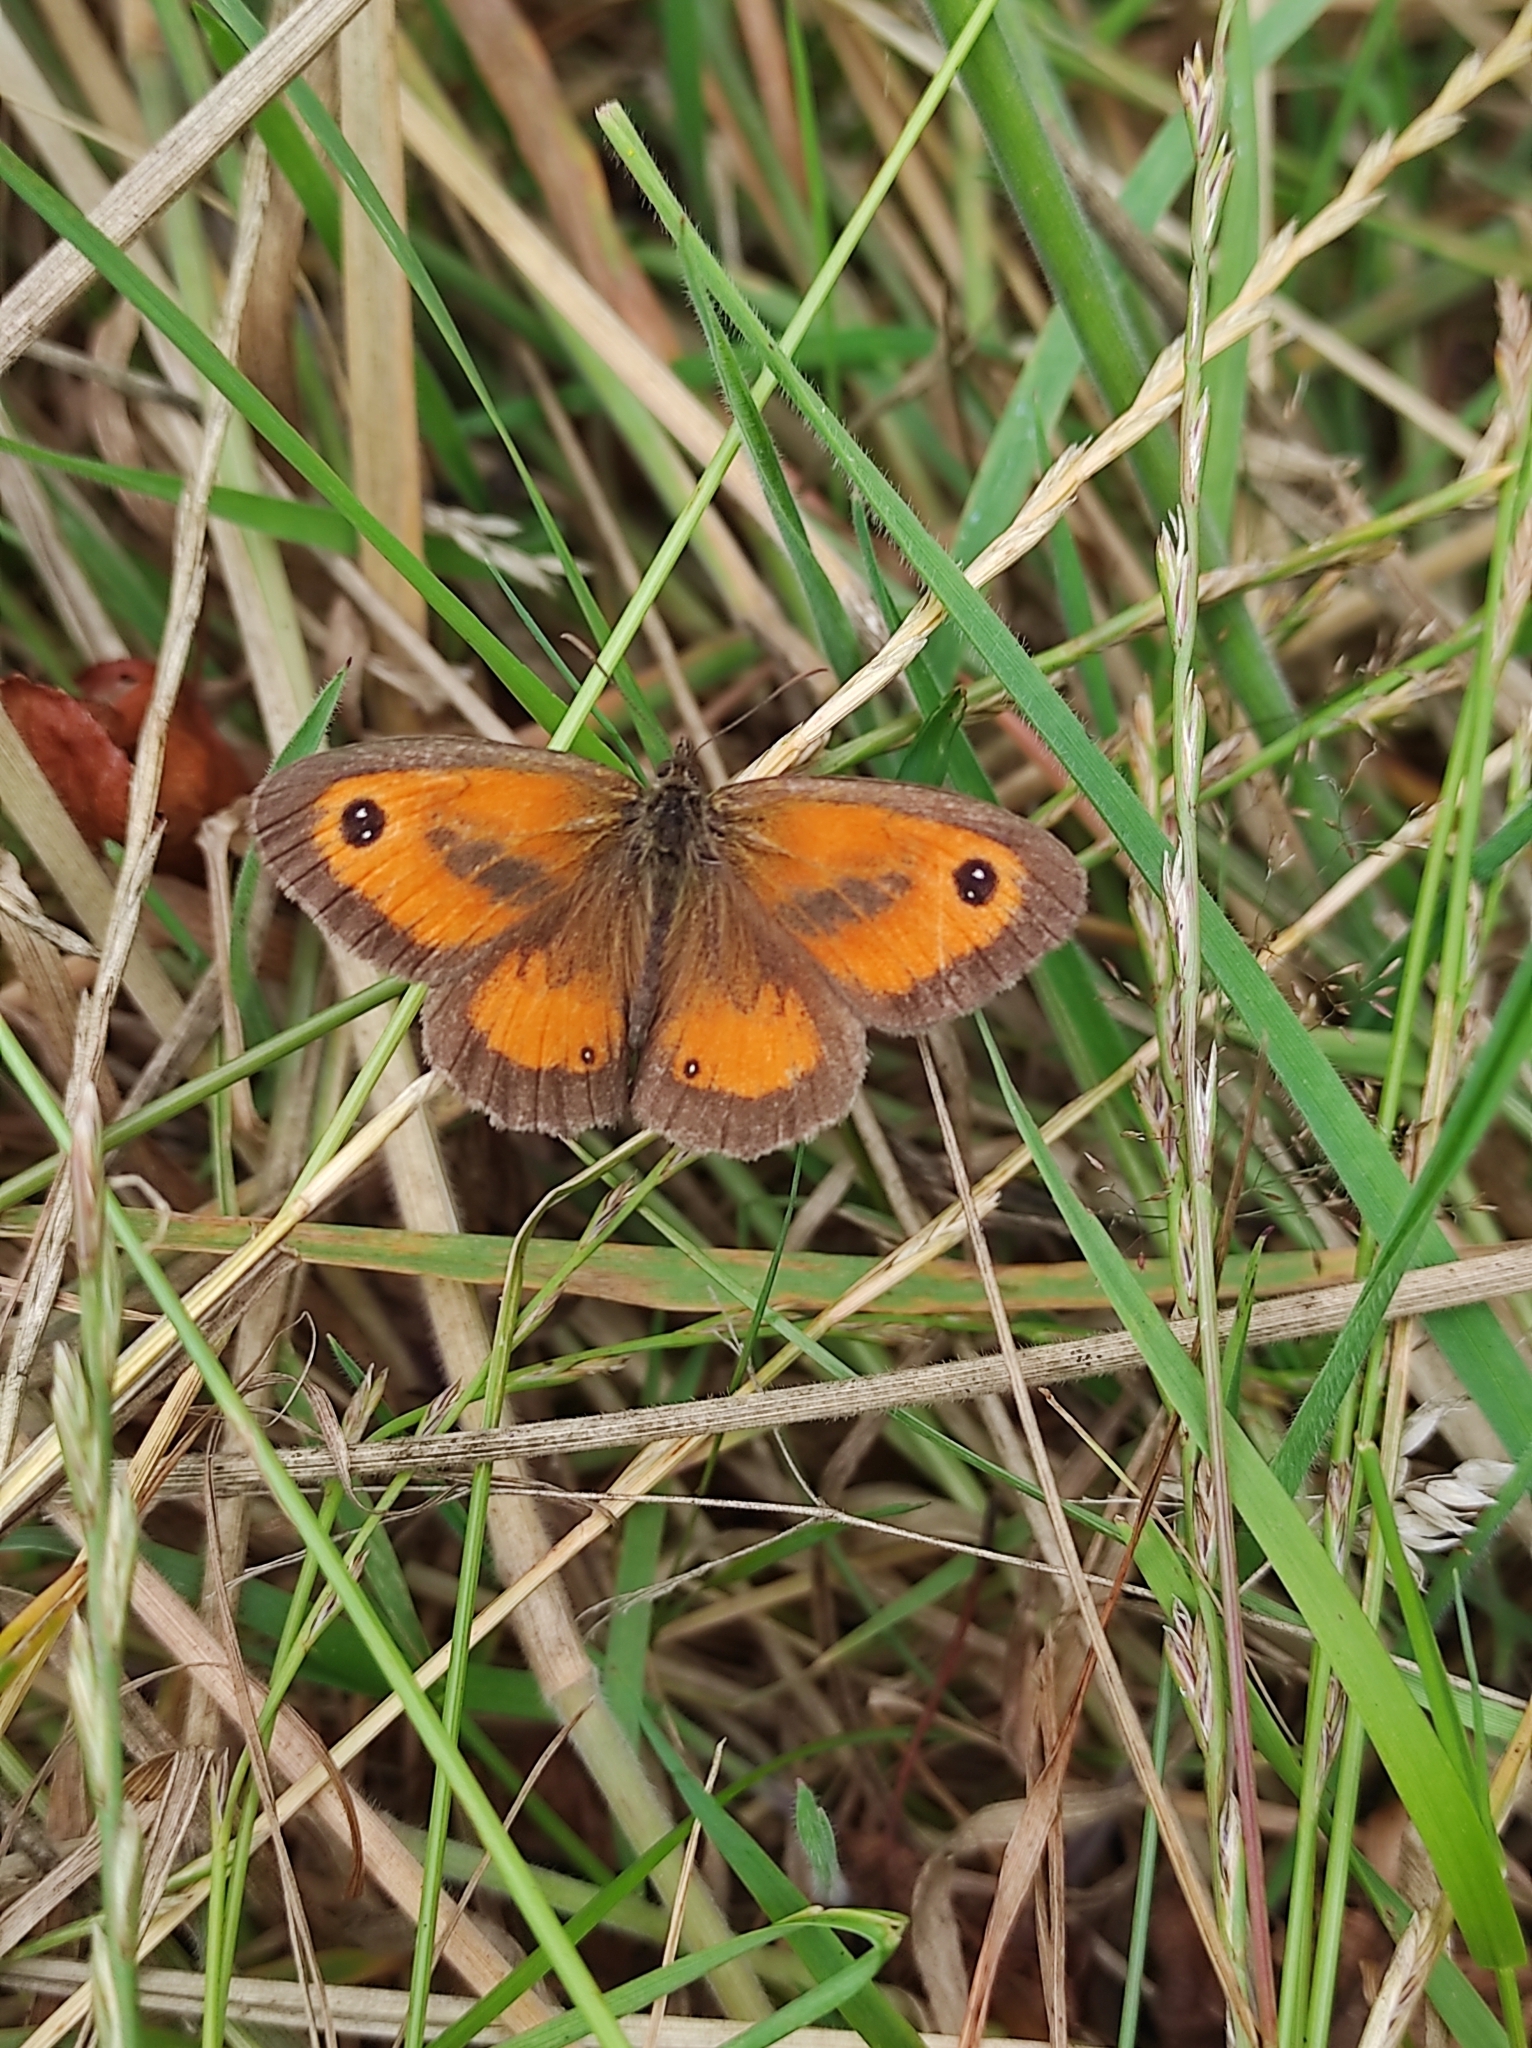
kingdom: Animalia
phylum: Arthropoda
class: Insecta
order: Lepidoptera
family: Nymphalidae
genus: Pyronia
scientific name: Pyronia tithonus
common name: Gatekeeper
